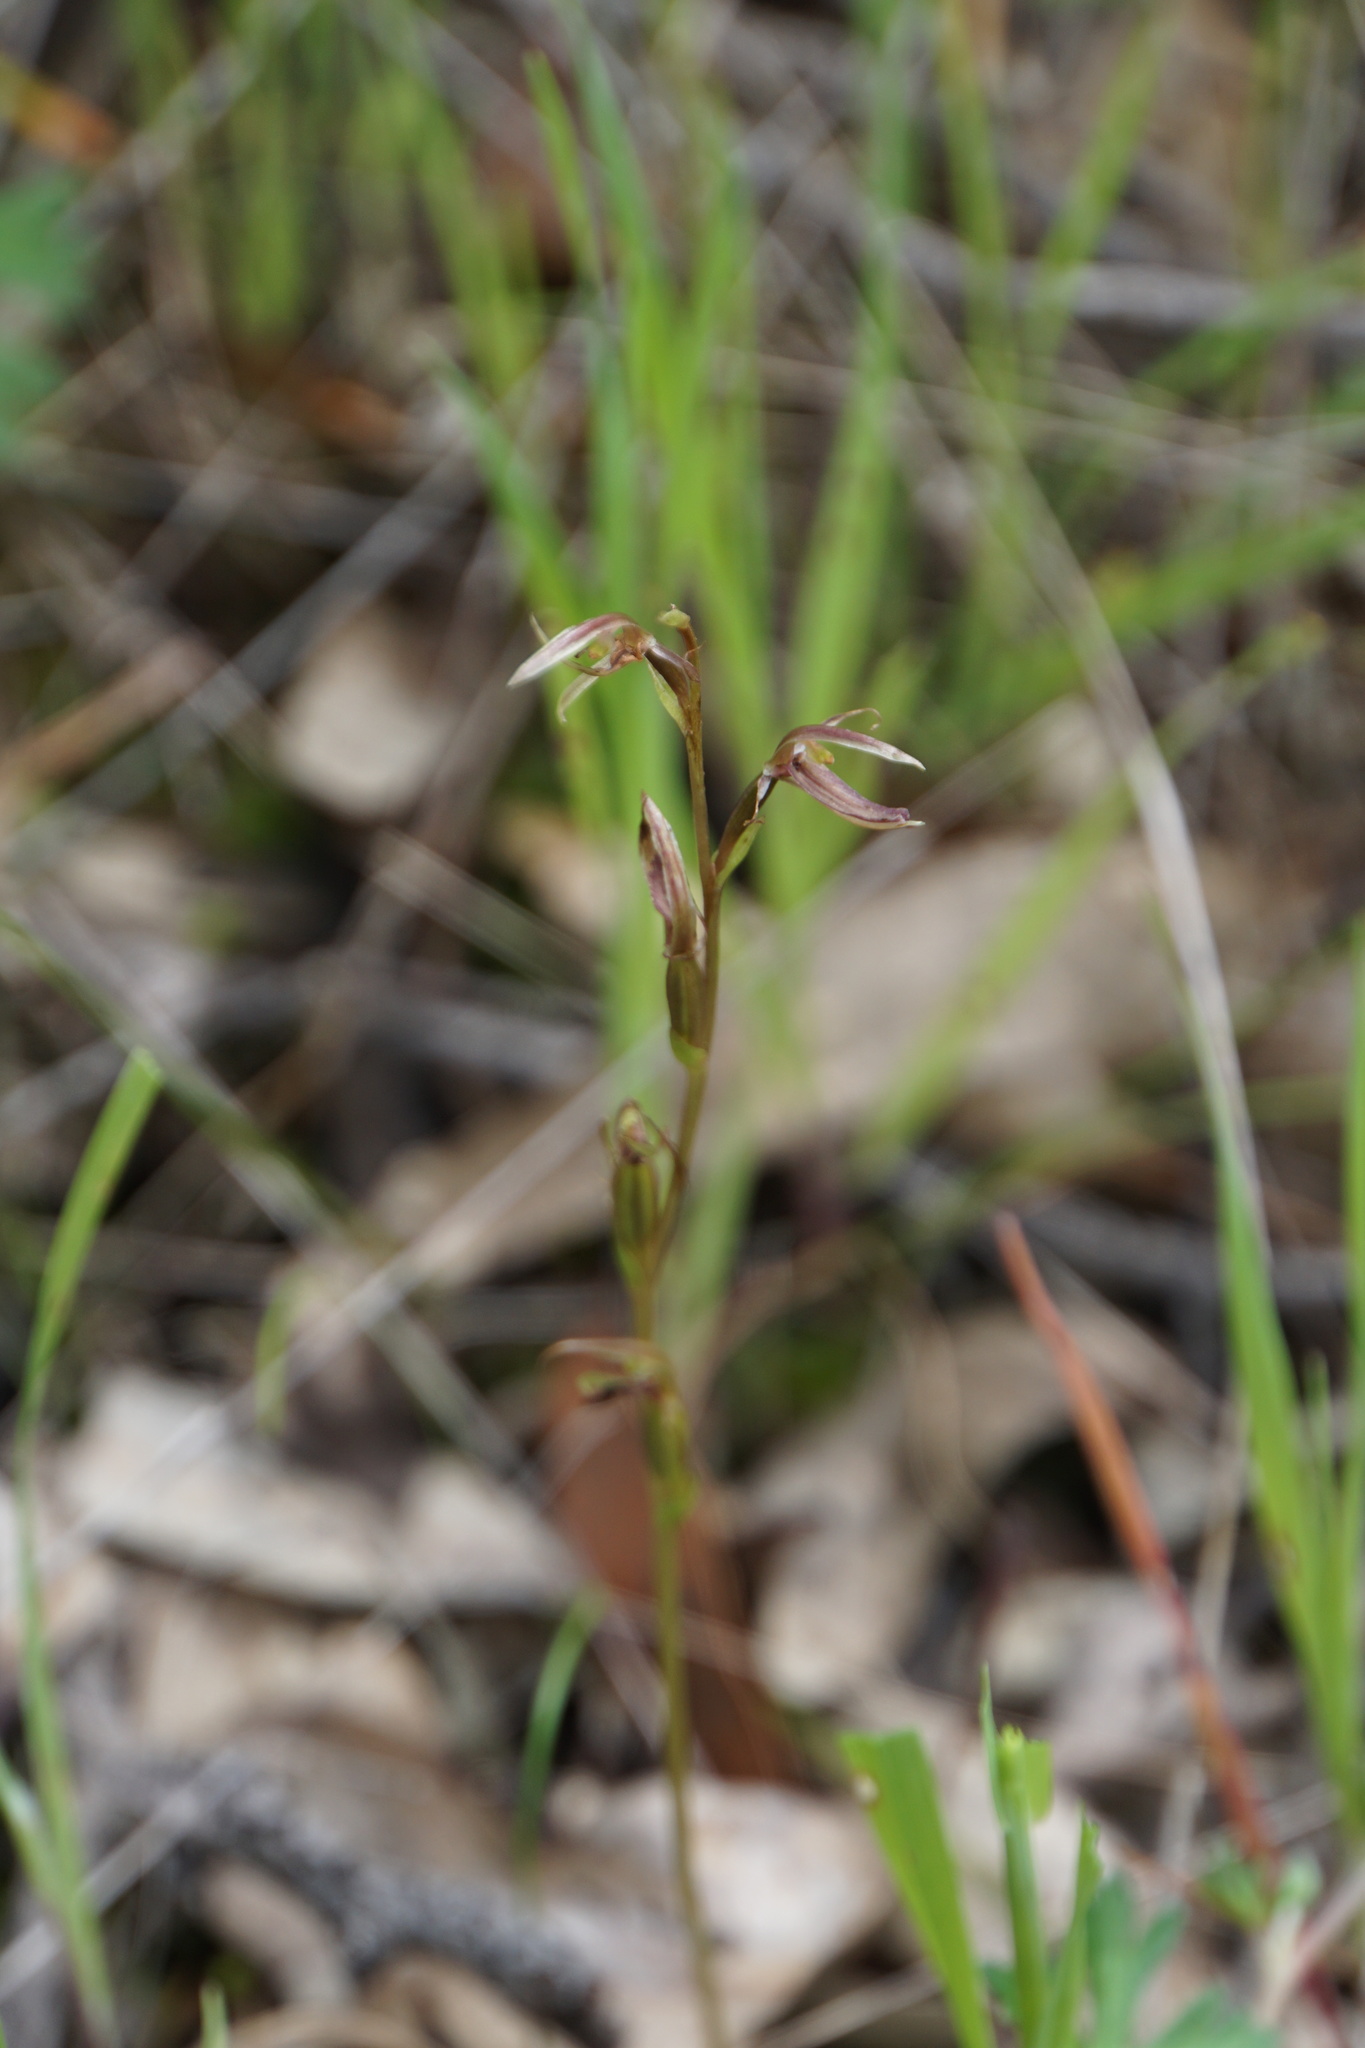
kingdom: Plantae
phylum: Tracheophyta
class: Liliopsida
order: Asparagales
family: Orchidaceae
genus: Cyrtostylis
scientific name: Cyrtostylis robusta
